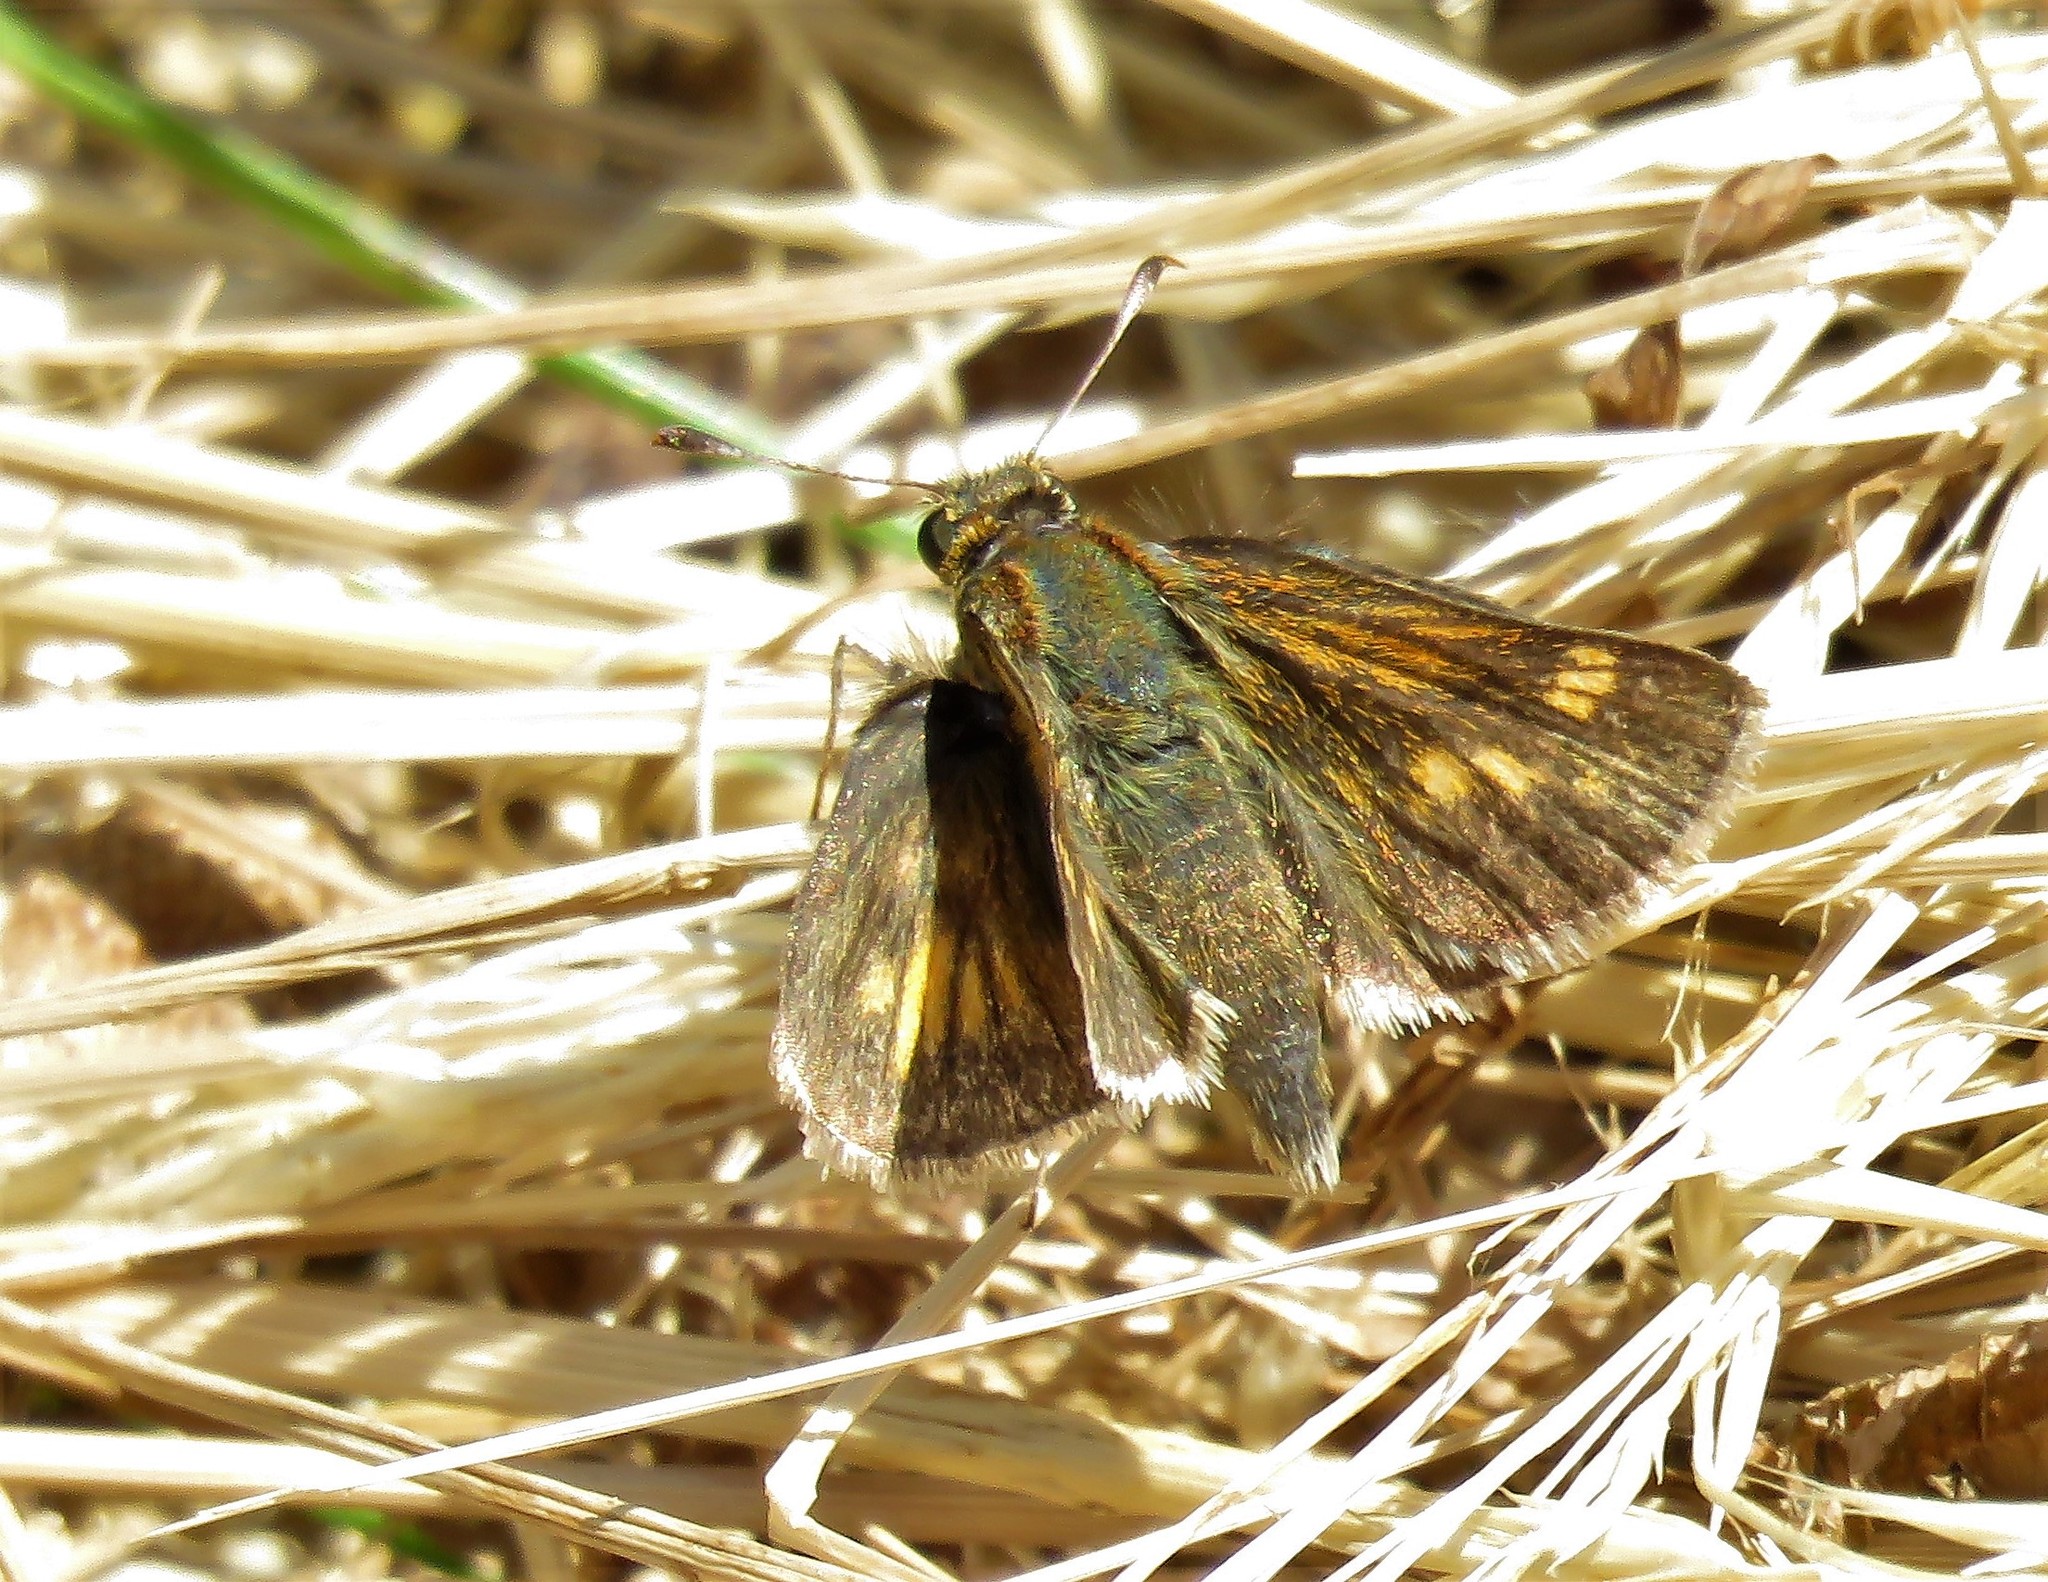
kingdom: Animalia
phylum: Arthropoda
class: Insecta
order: Lepidoptera
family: Hesperiidae
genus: Polites
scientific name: Polites coras
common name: Peck's skipper
